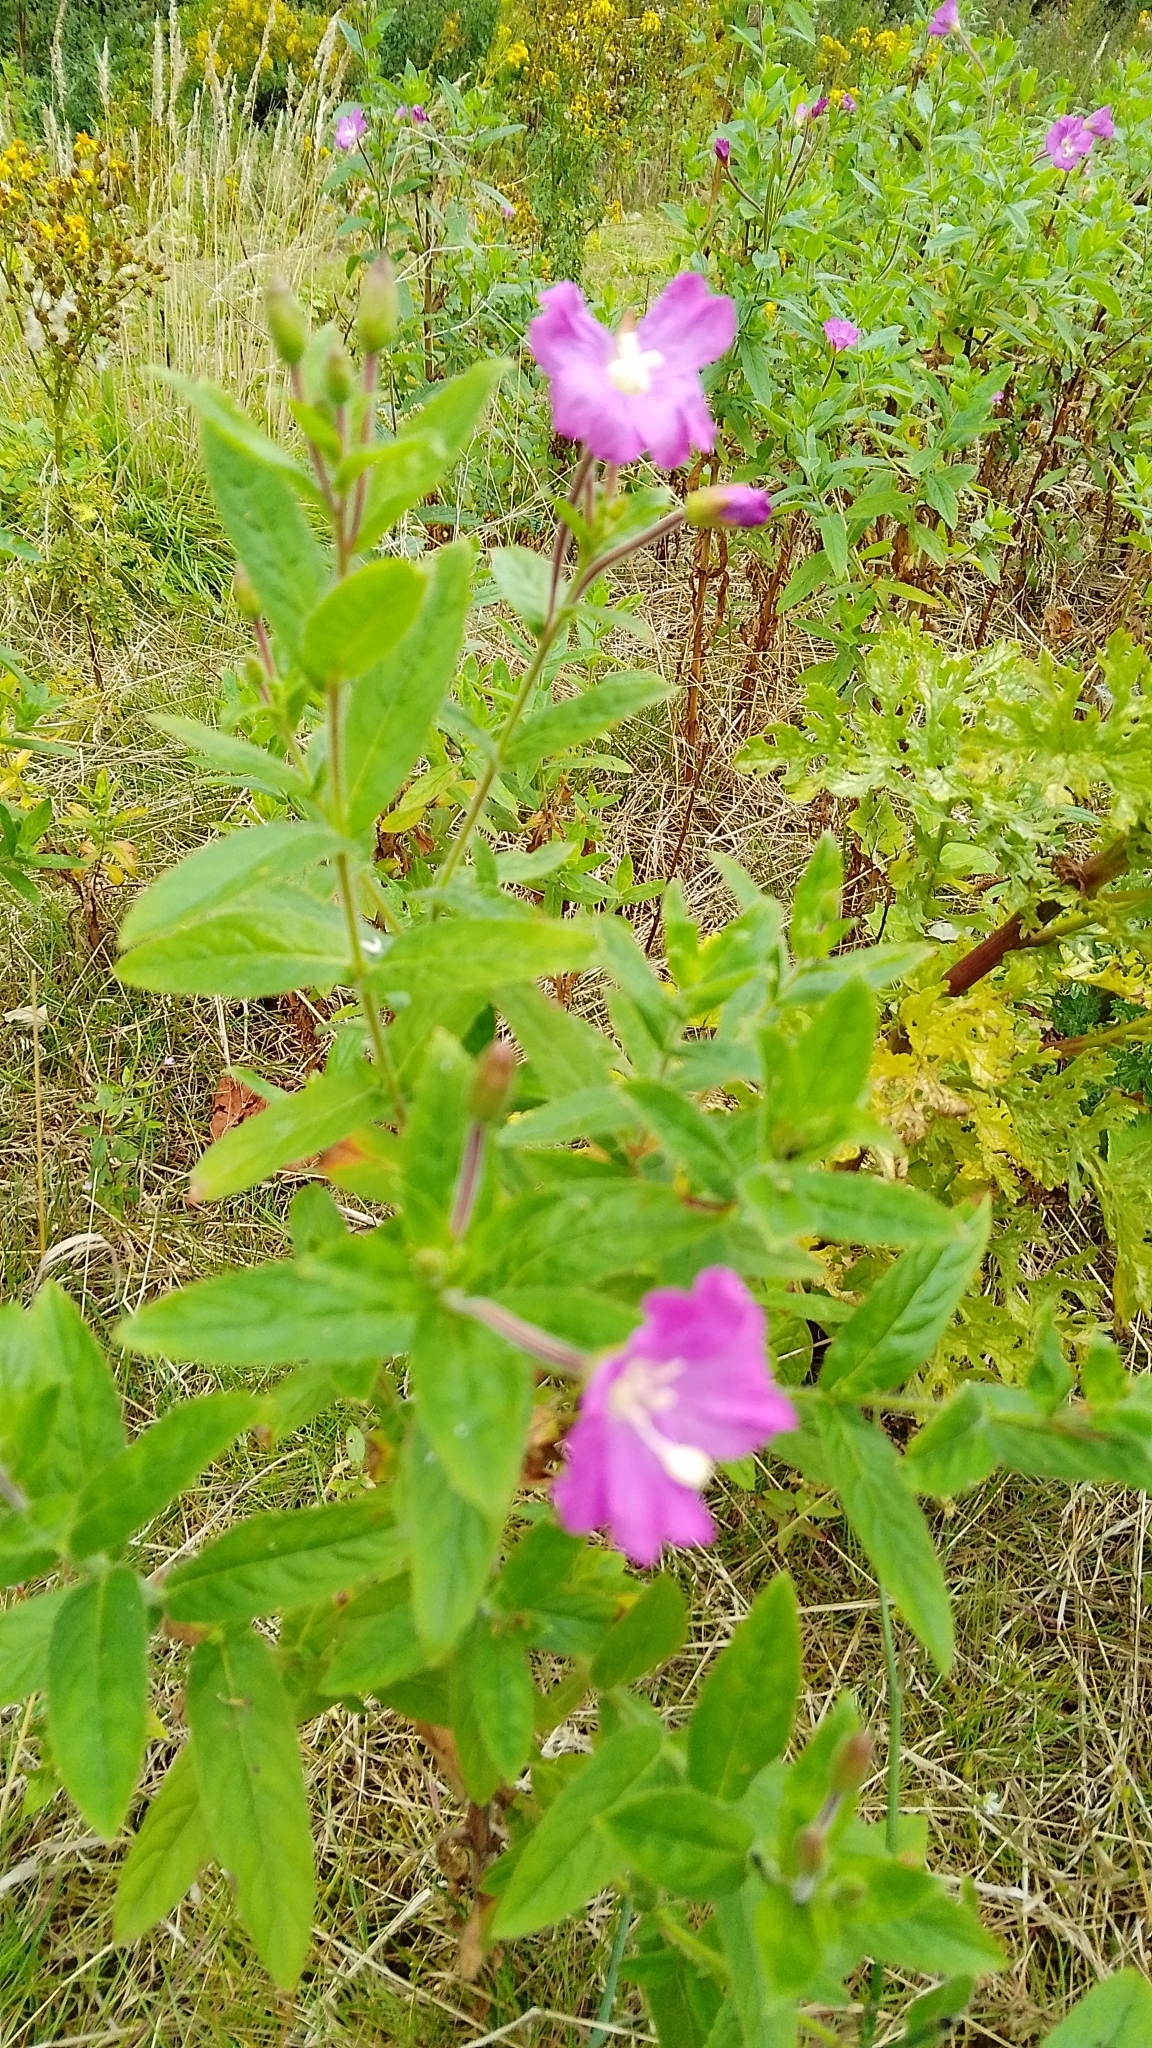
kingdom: Plantae
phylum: Tracheophyta
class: Magnoliopsida
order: Myrtales
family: Onagraceae
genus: Epilobium
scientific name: Epilobium hirsutum
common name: Great willowherb
